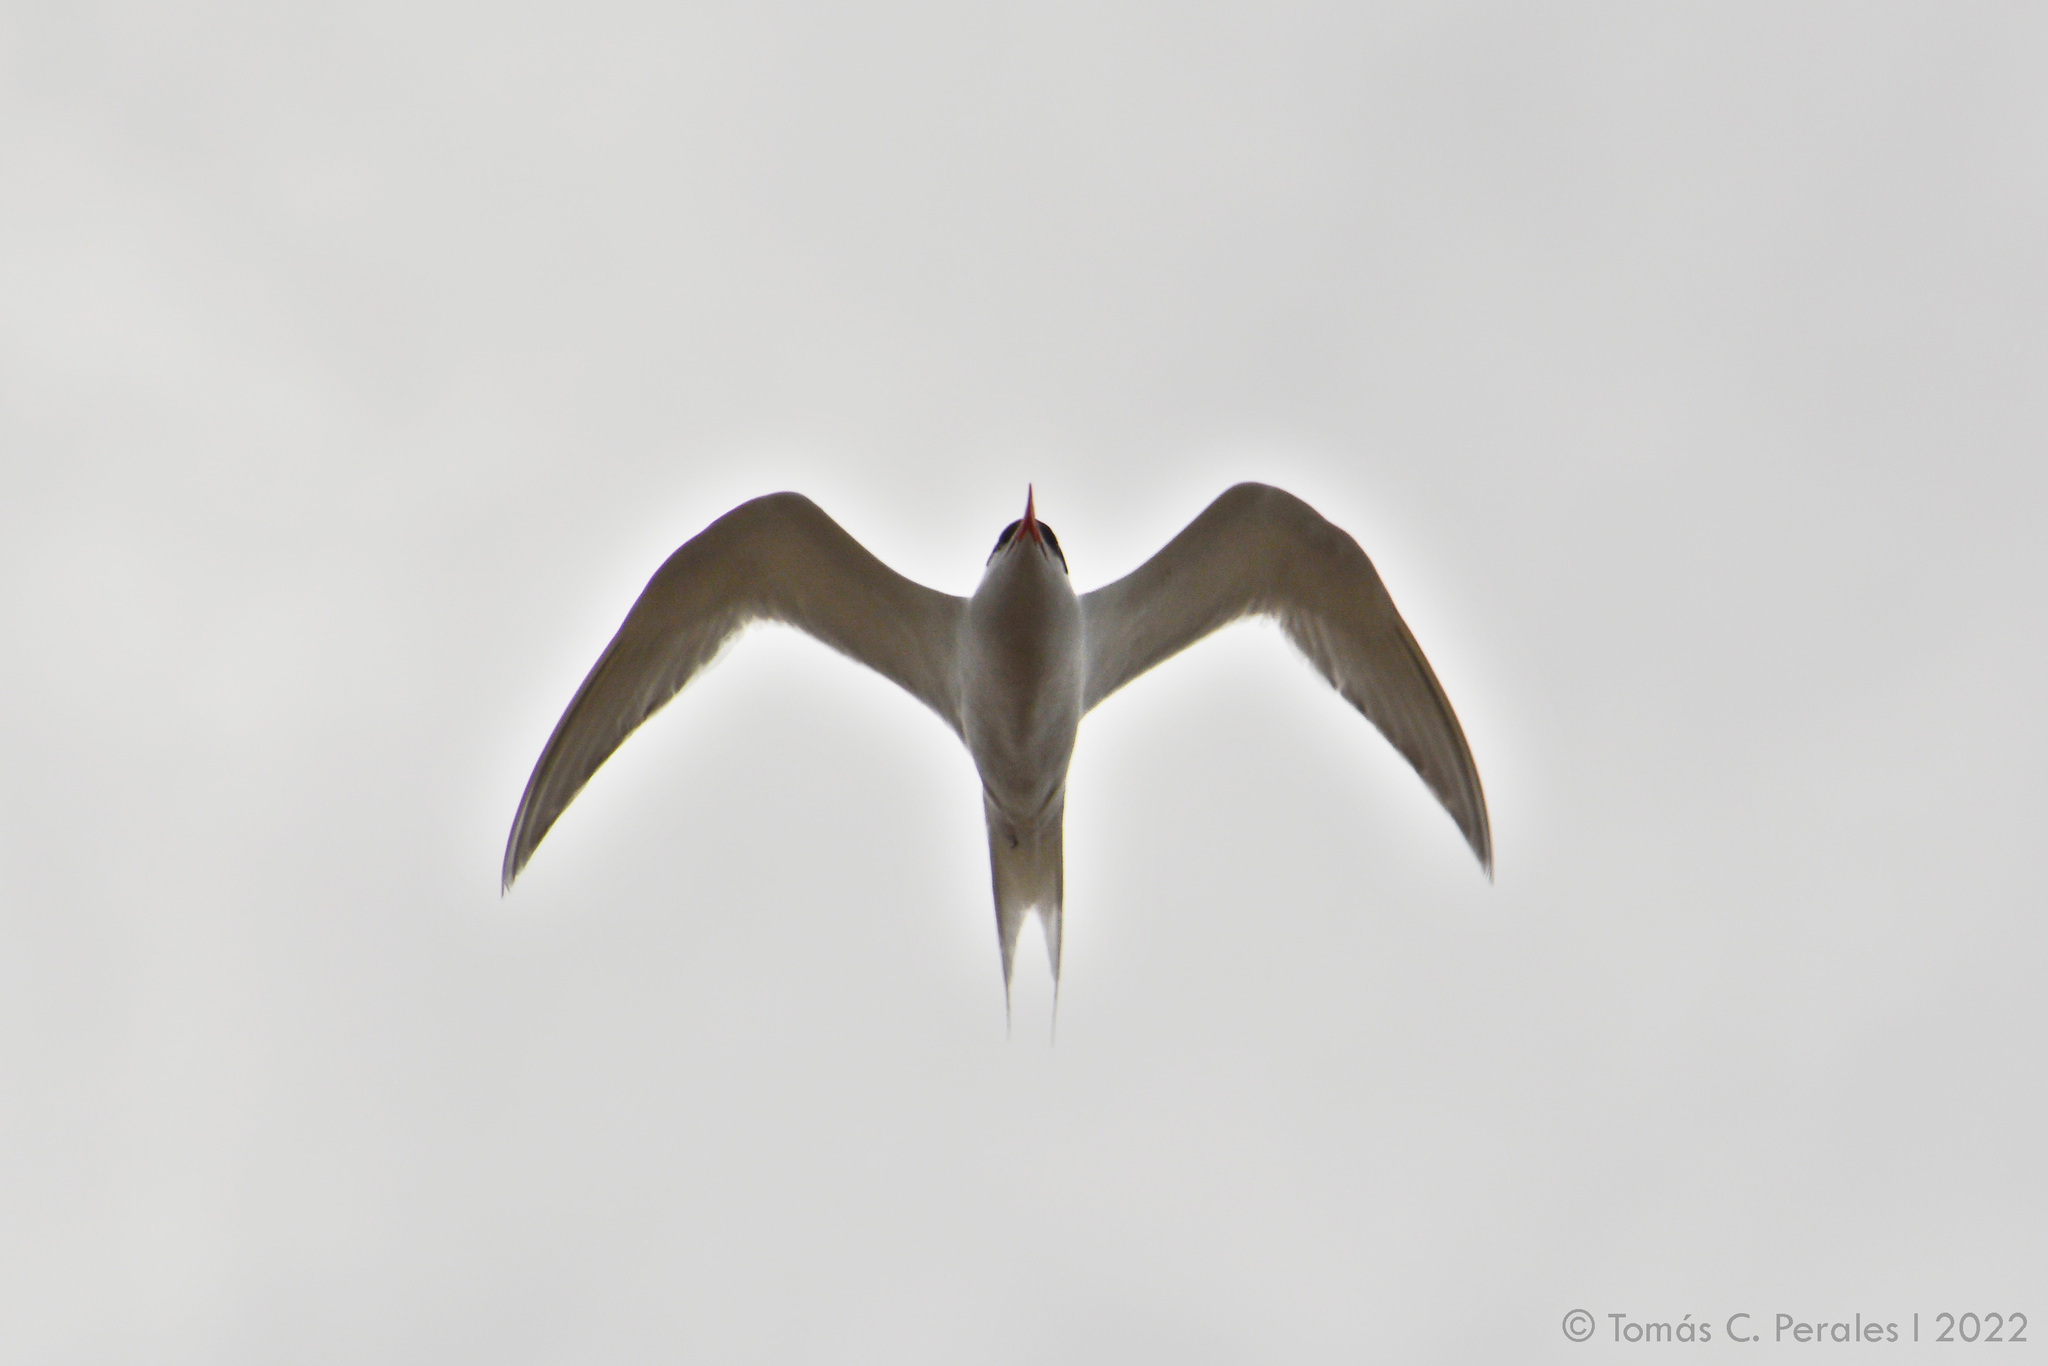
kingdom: Animalia
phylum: Chordata
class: Aves
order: Charadriiformes
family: Laridae
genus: Sterna
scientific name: Sterna hirundinacea
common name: South american tern
